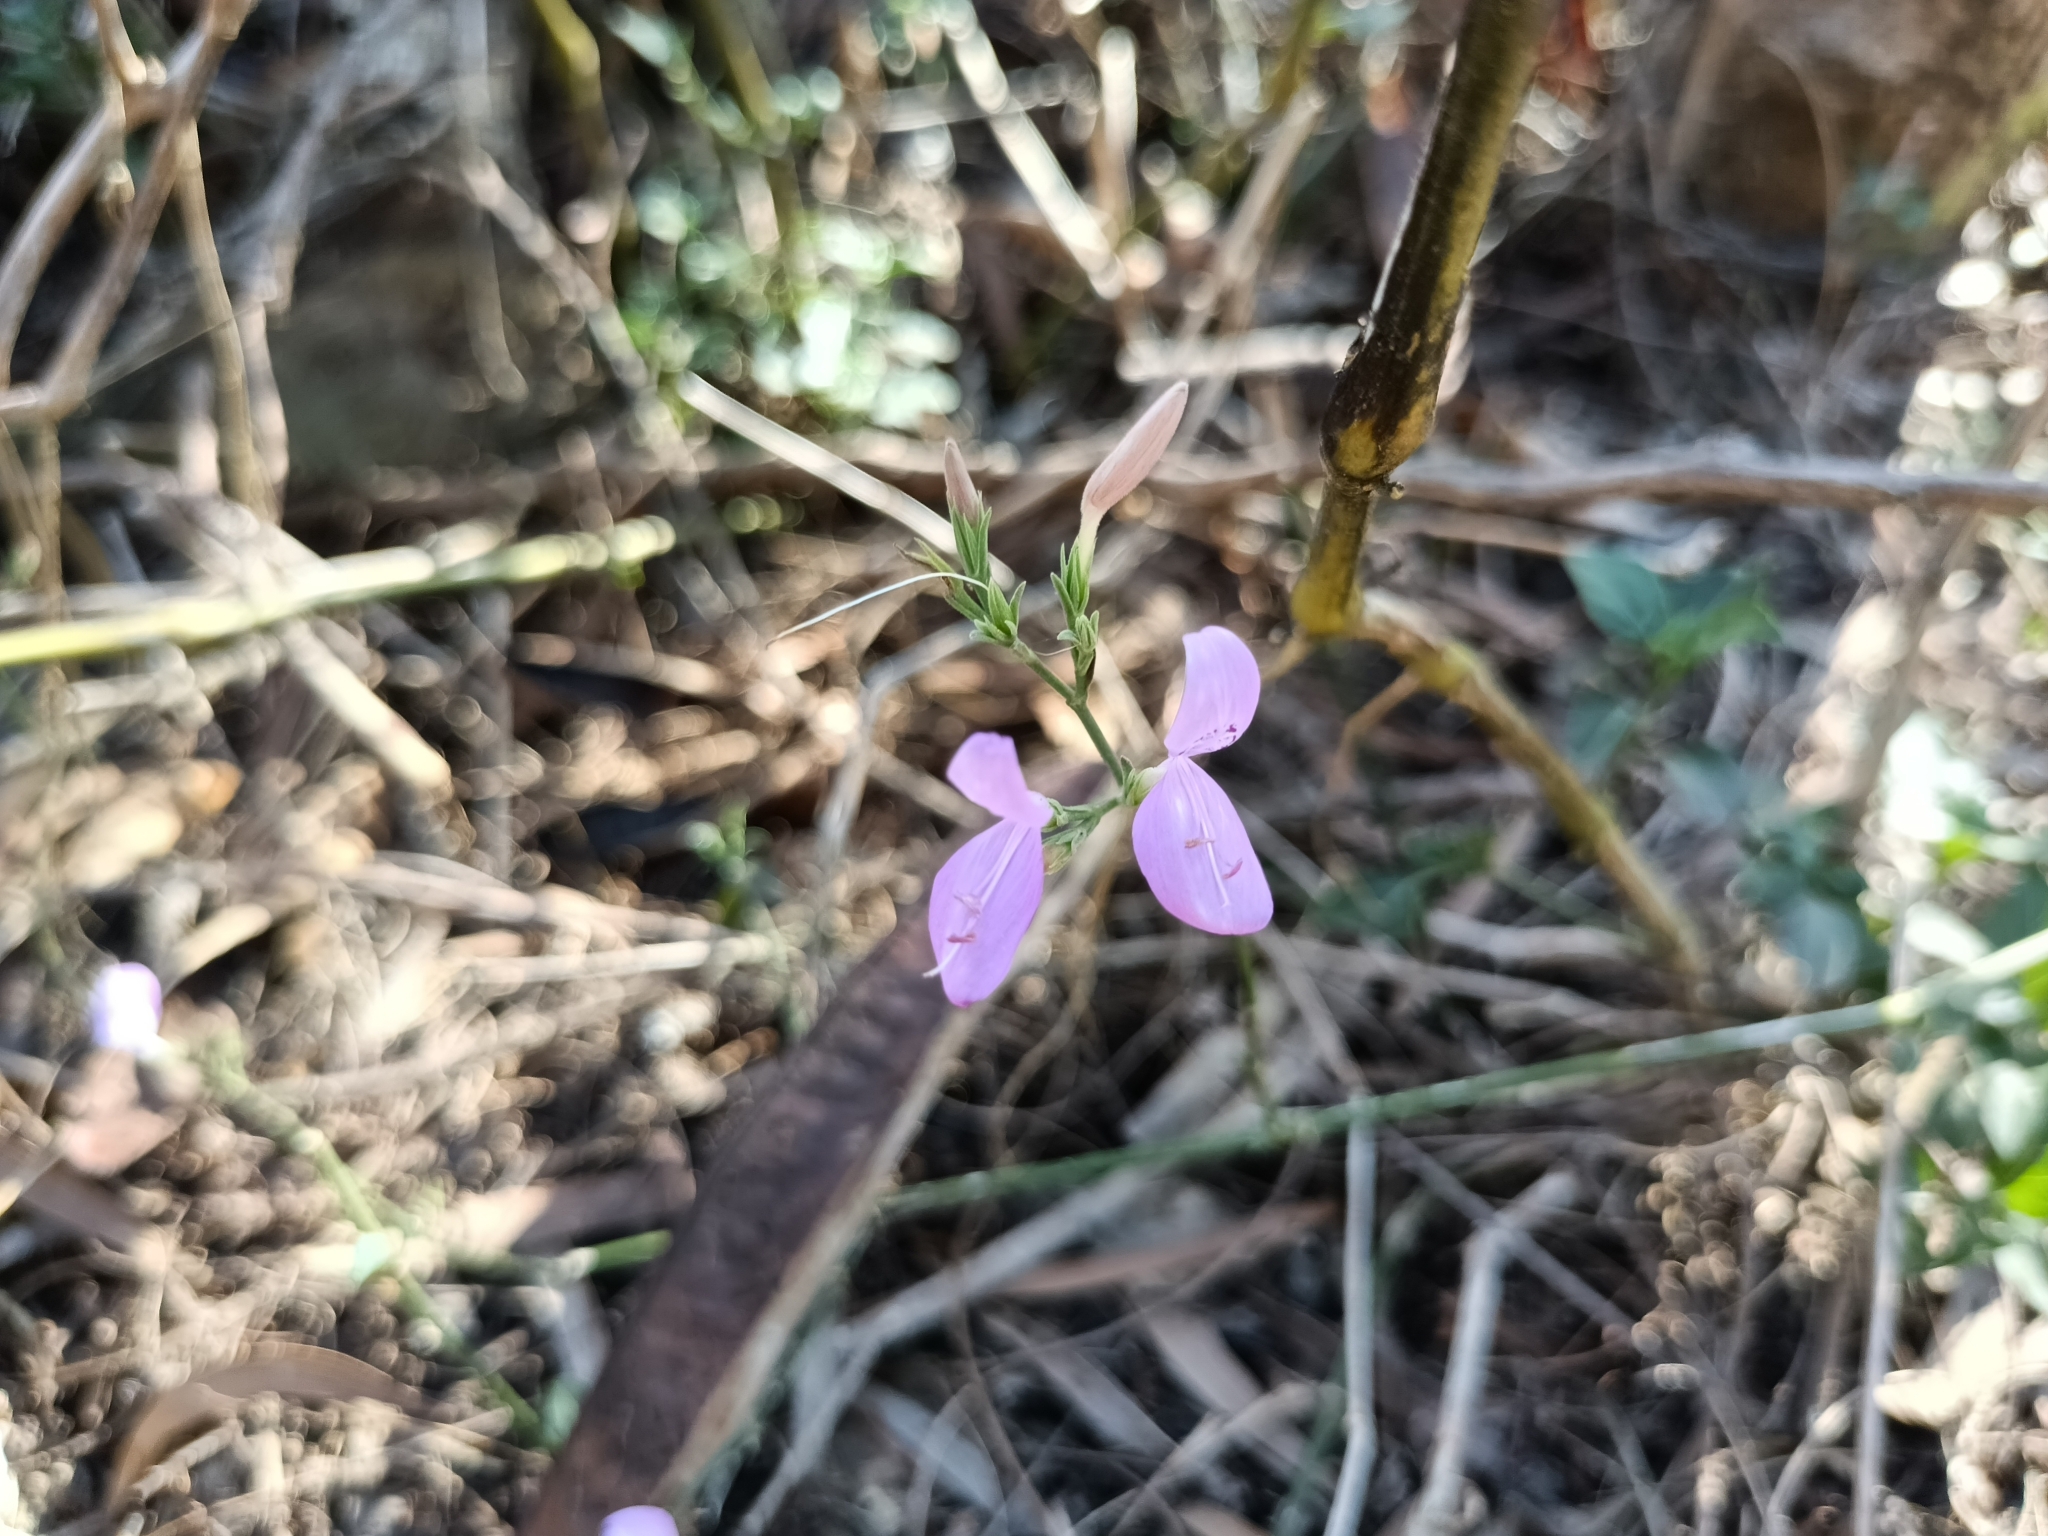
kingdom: Plantae
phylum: Tracheophyta
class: Magnoliopsida
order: Lamiales
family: Acanthaceae
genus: Hypoestes
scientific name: Hypoestes cumingiana
